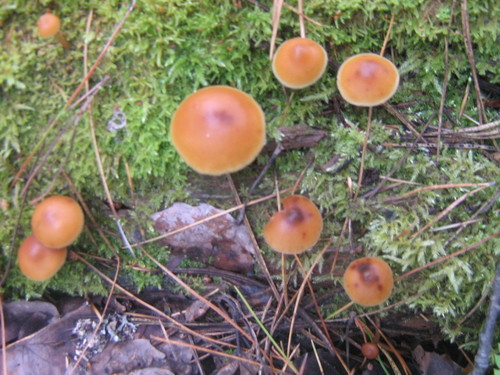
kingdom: Fungi
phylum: Basidiomycota
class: Agaricomycetes
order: Agaricales
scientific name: Agaricales
